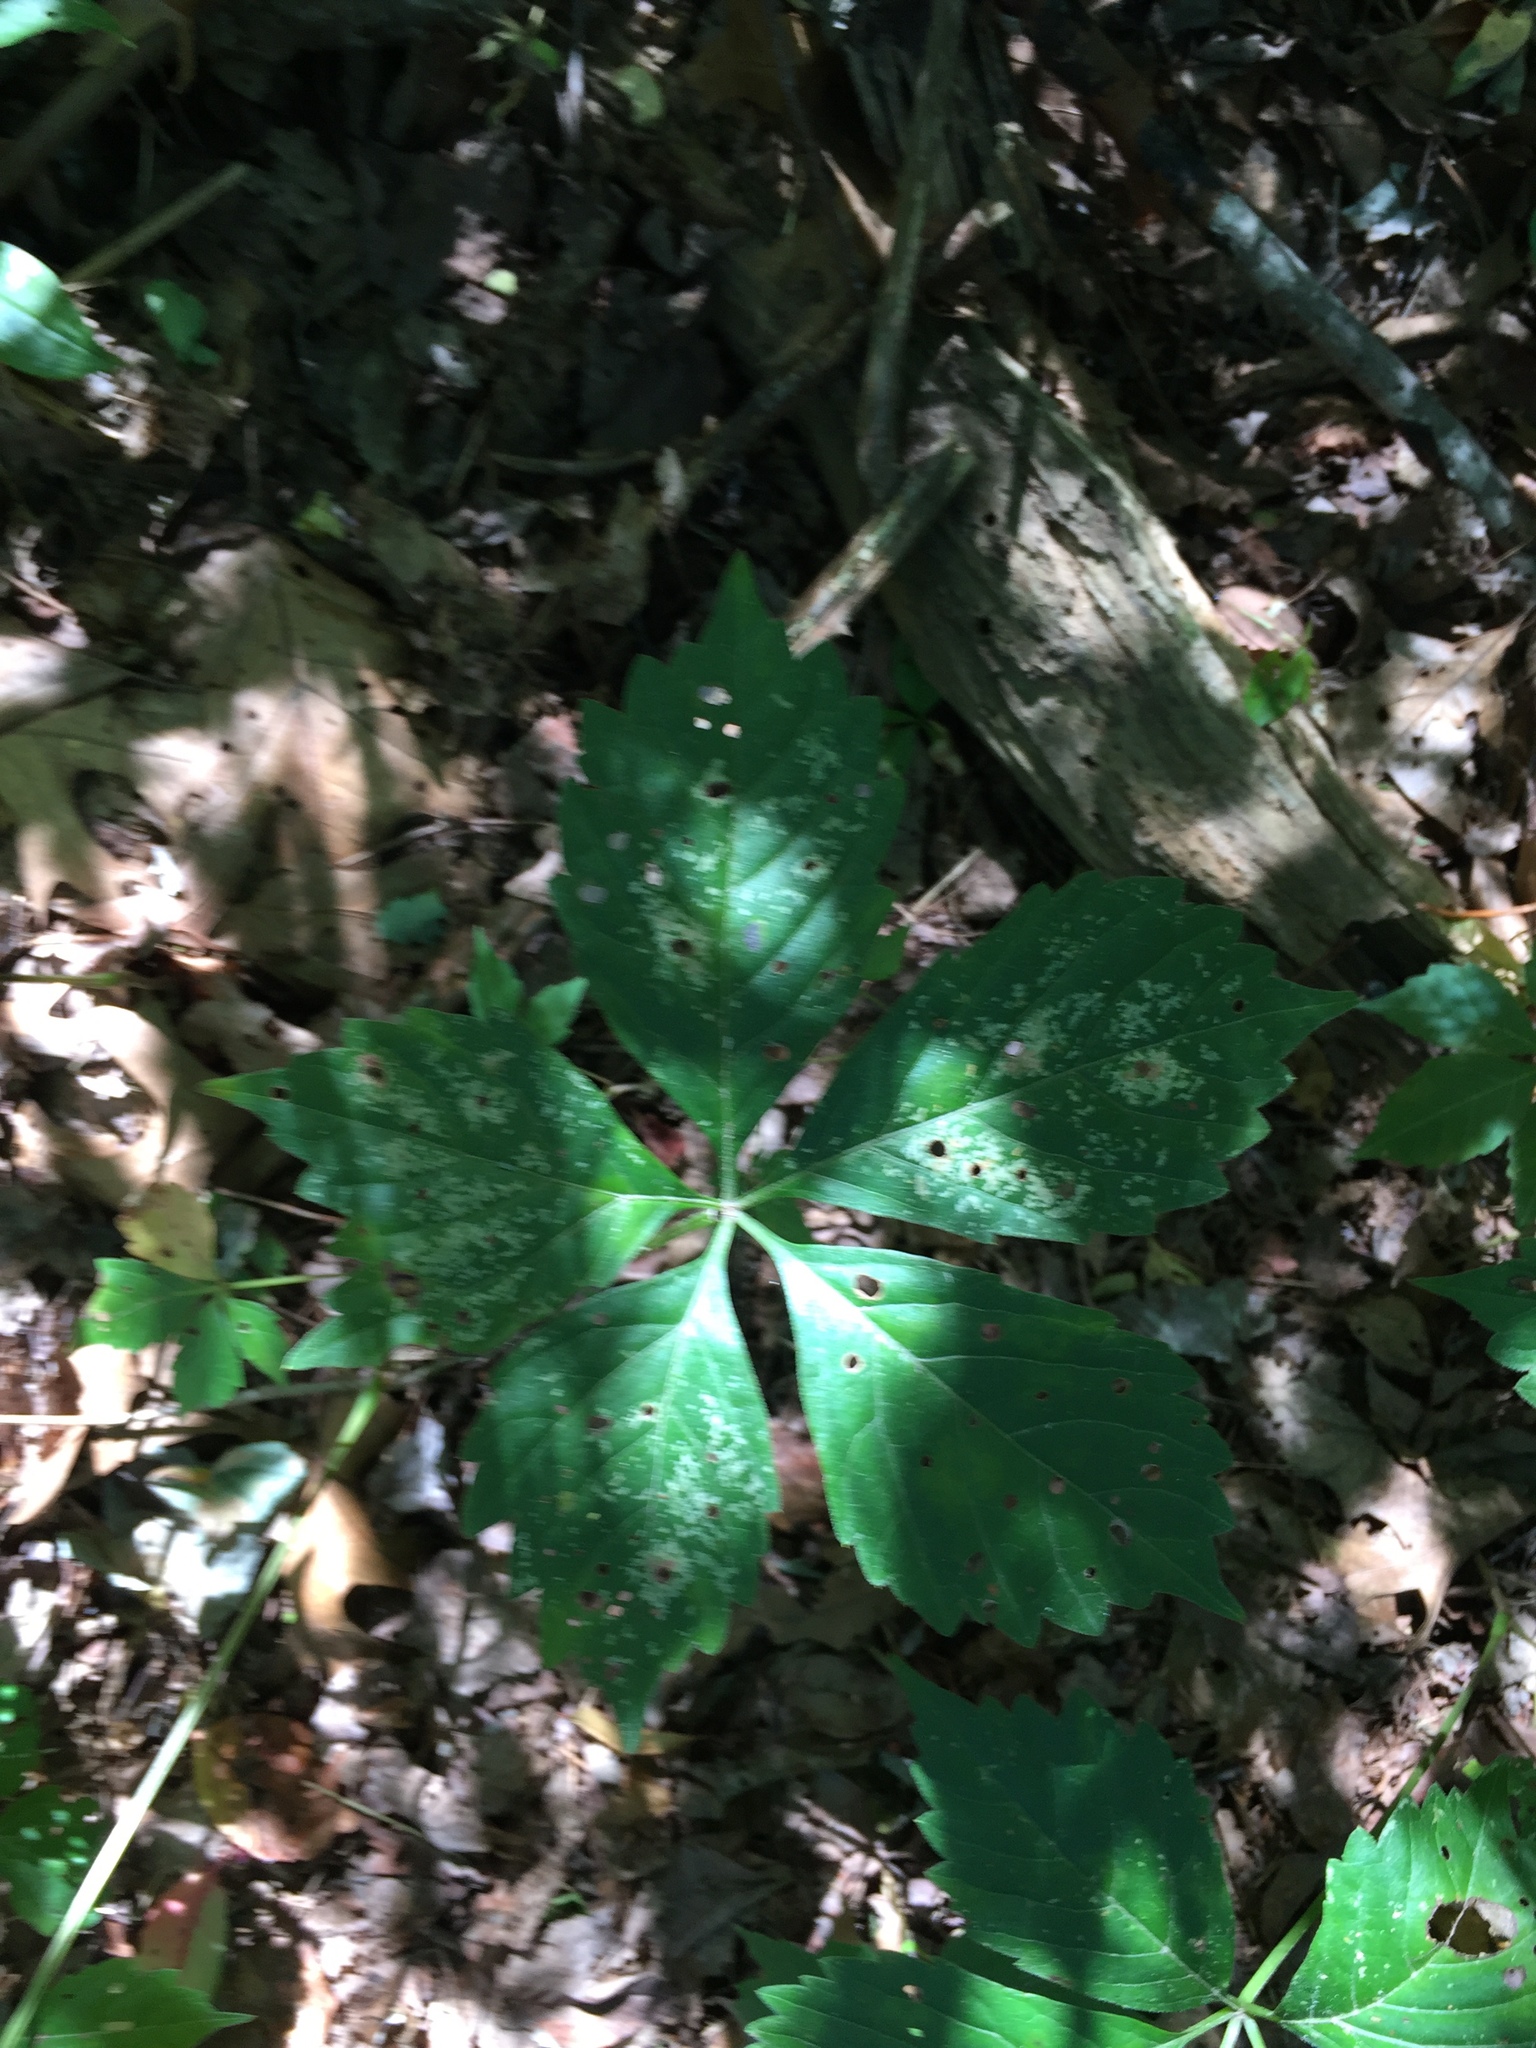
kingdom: Plantae
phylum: Tracheophyta
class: Magnoliopsida
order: Vitales
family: Vitaceae
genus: Parthenocissus
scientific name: Parthenocissus quinquefolia
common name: Virginia-creeper
